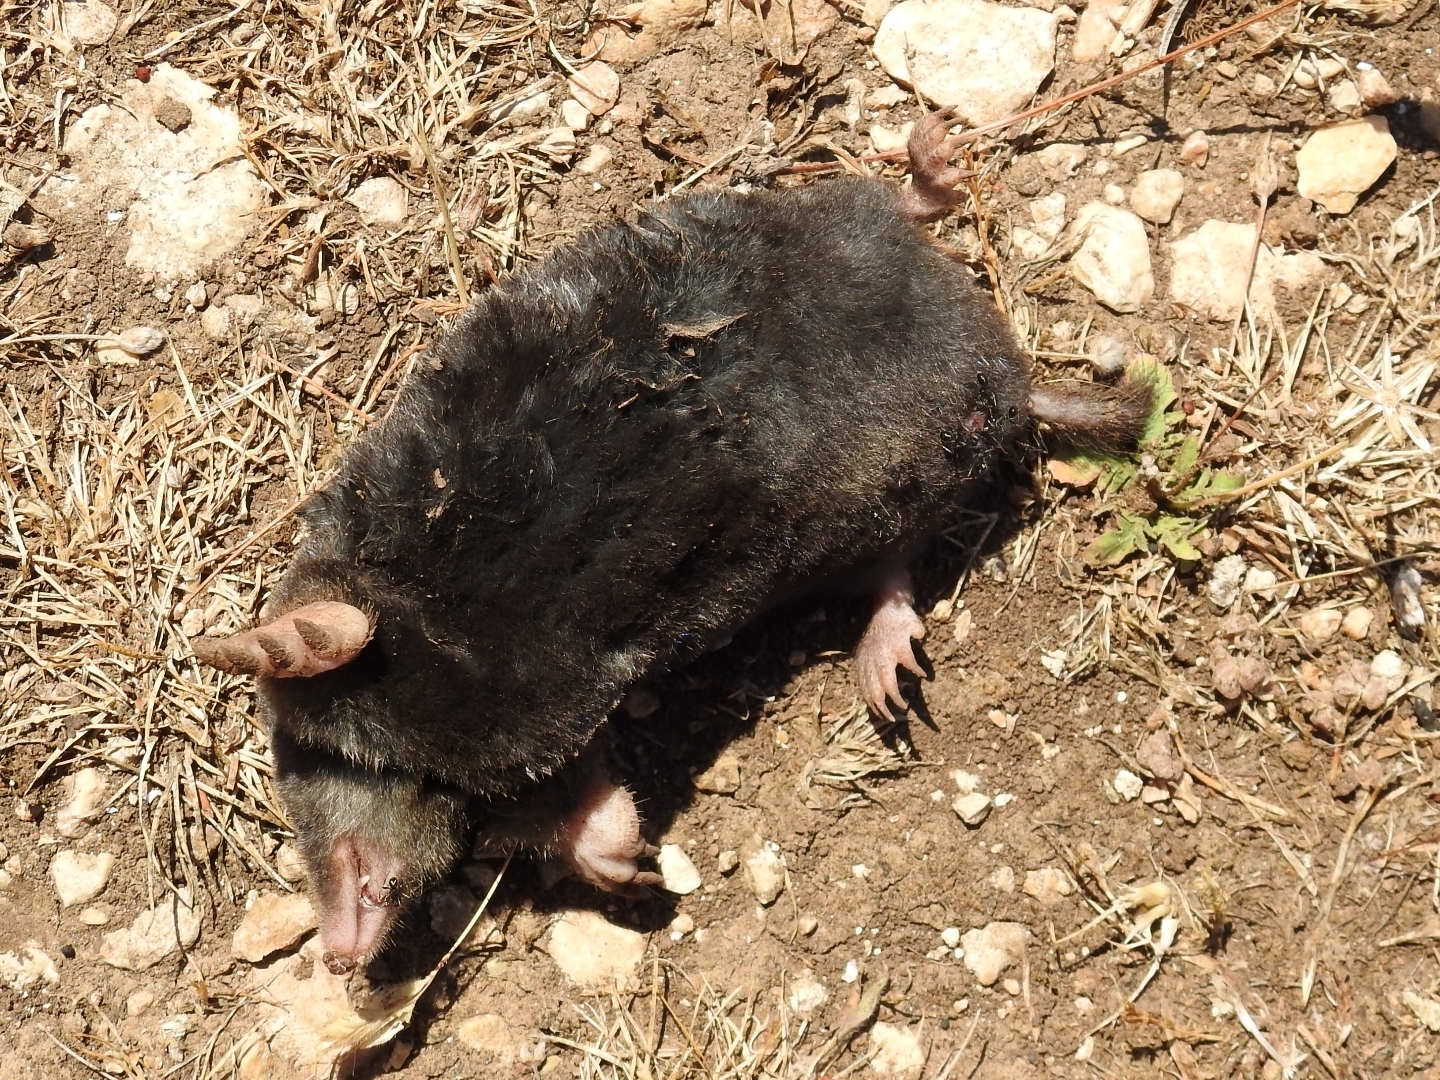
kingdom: Animalia
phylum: Chordata
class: Mammalia
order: Soricomorpha
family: Talpidae
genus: Talpa
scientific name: Talpa
